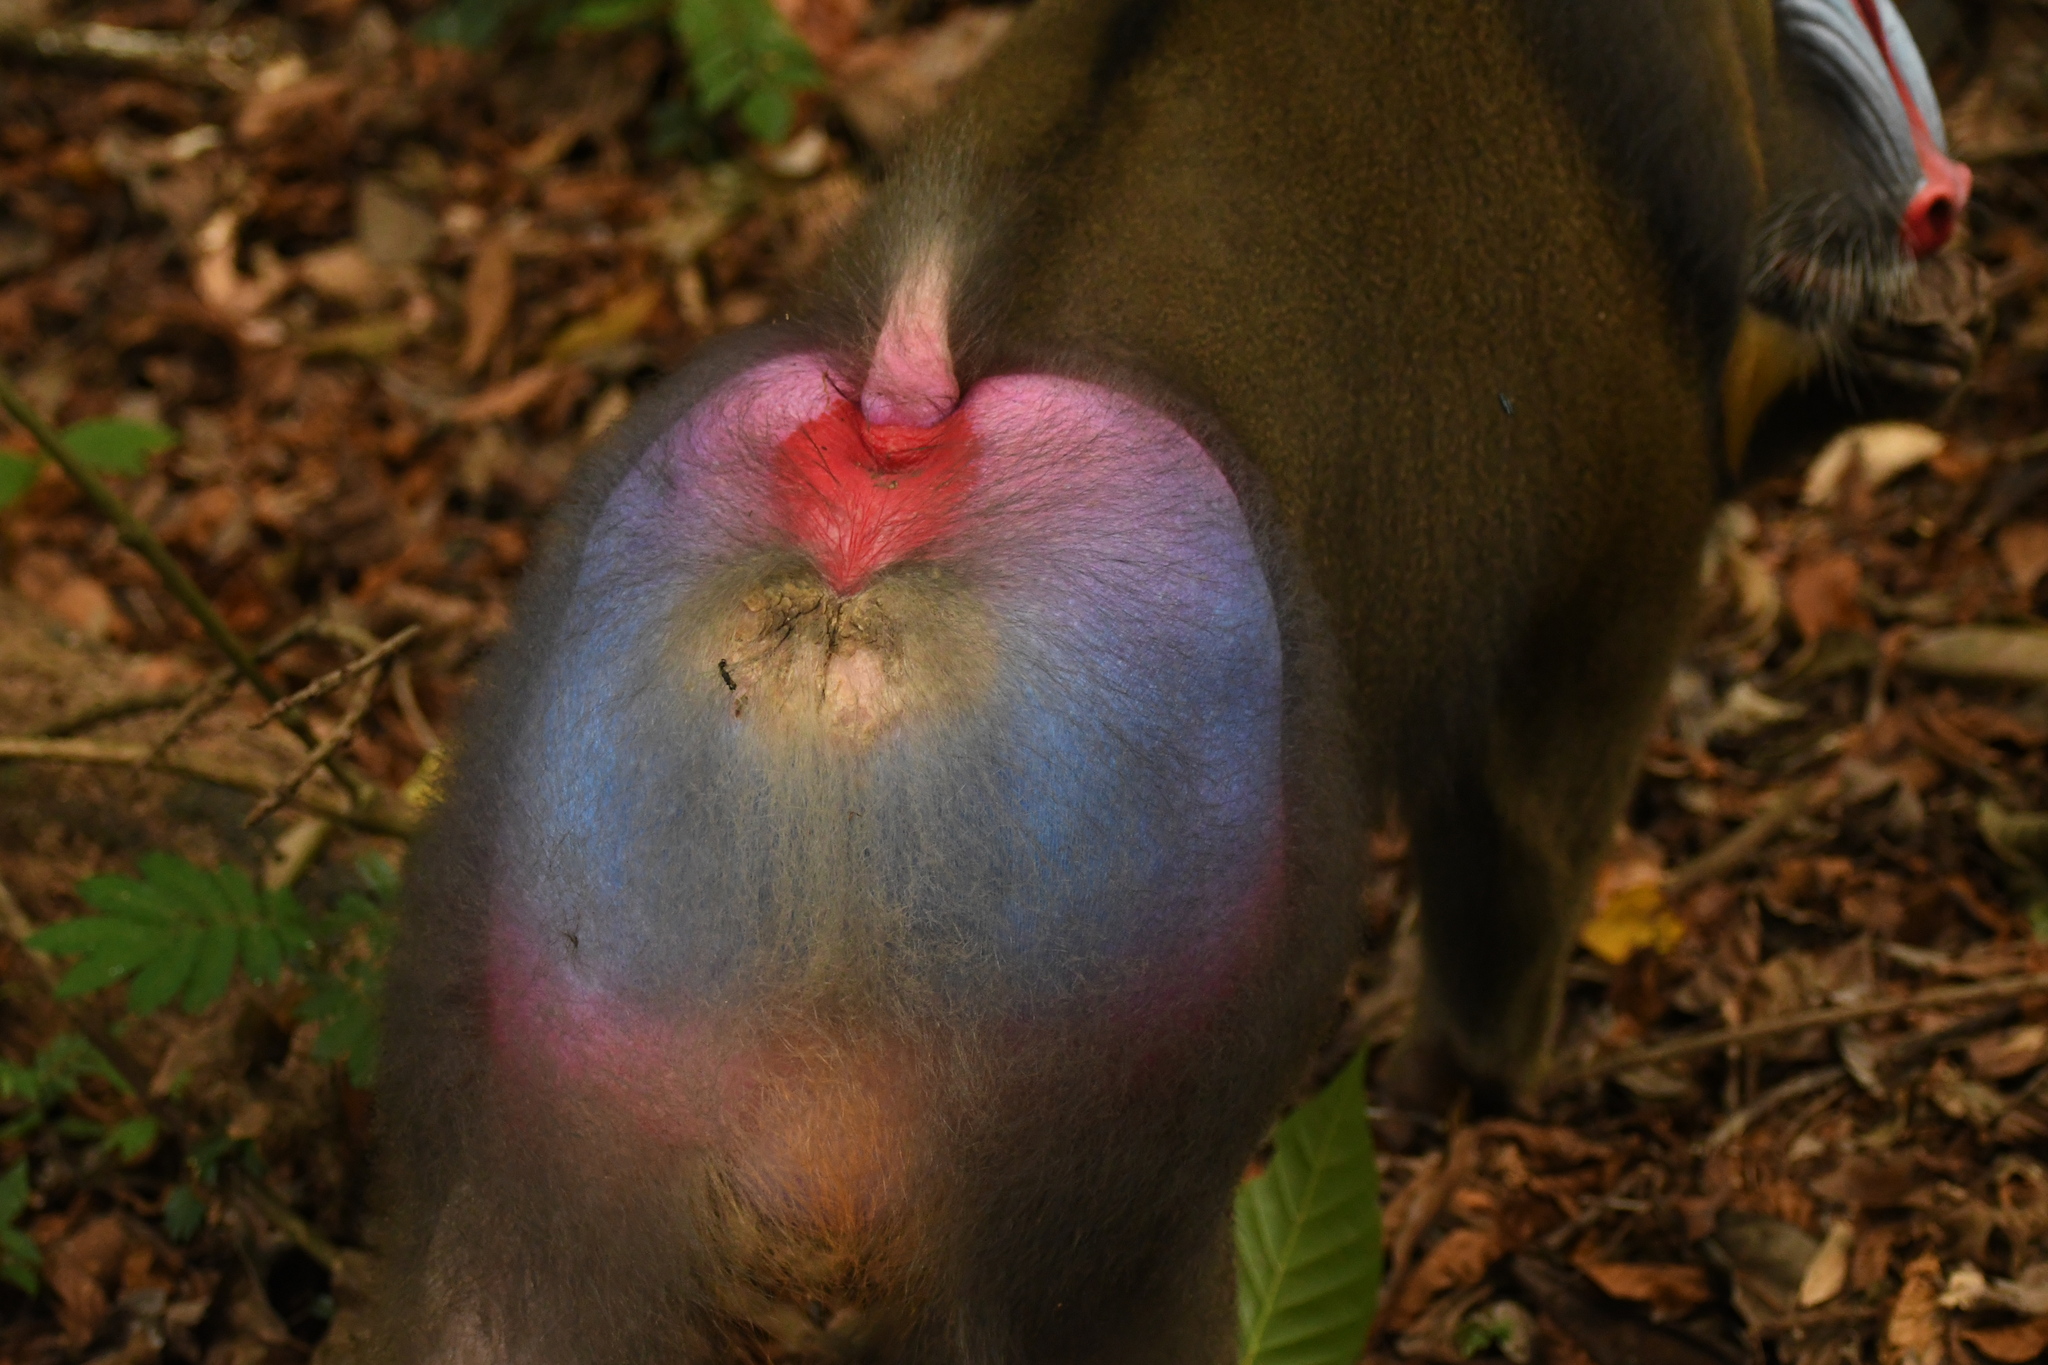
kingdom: Animalia
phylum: Chordata
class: Mammalia
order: Primates
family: Cercopithecidae
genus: Mandrillus
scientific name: Mandrillus sphinx
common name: Mandrill
